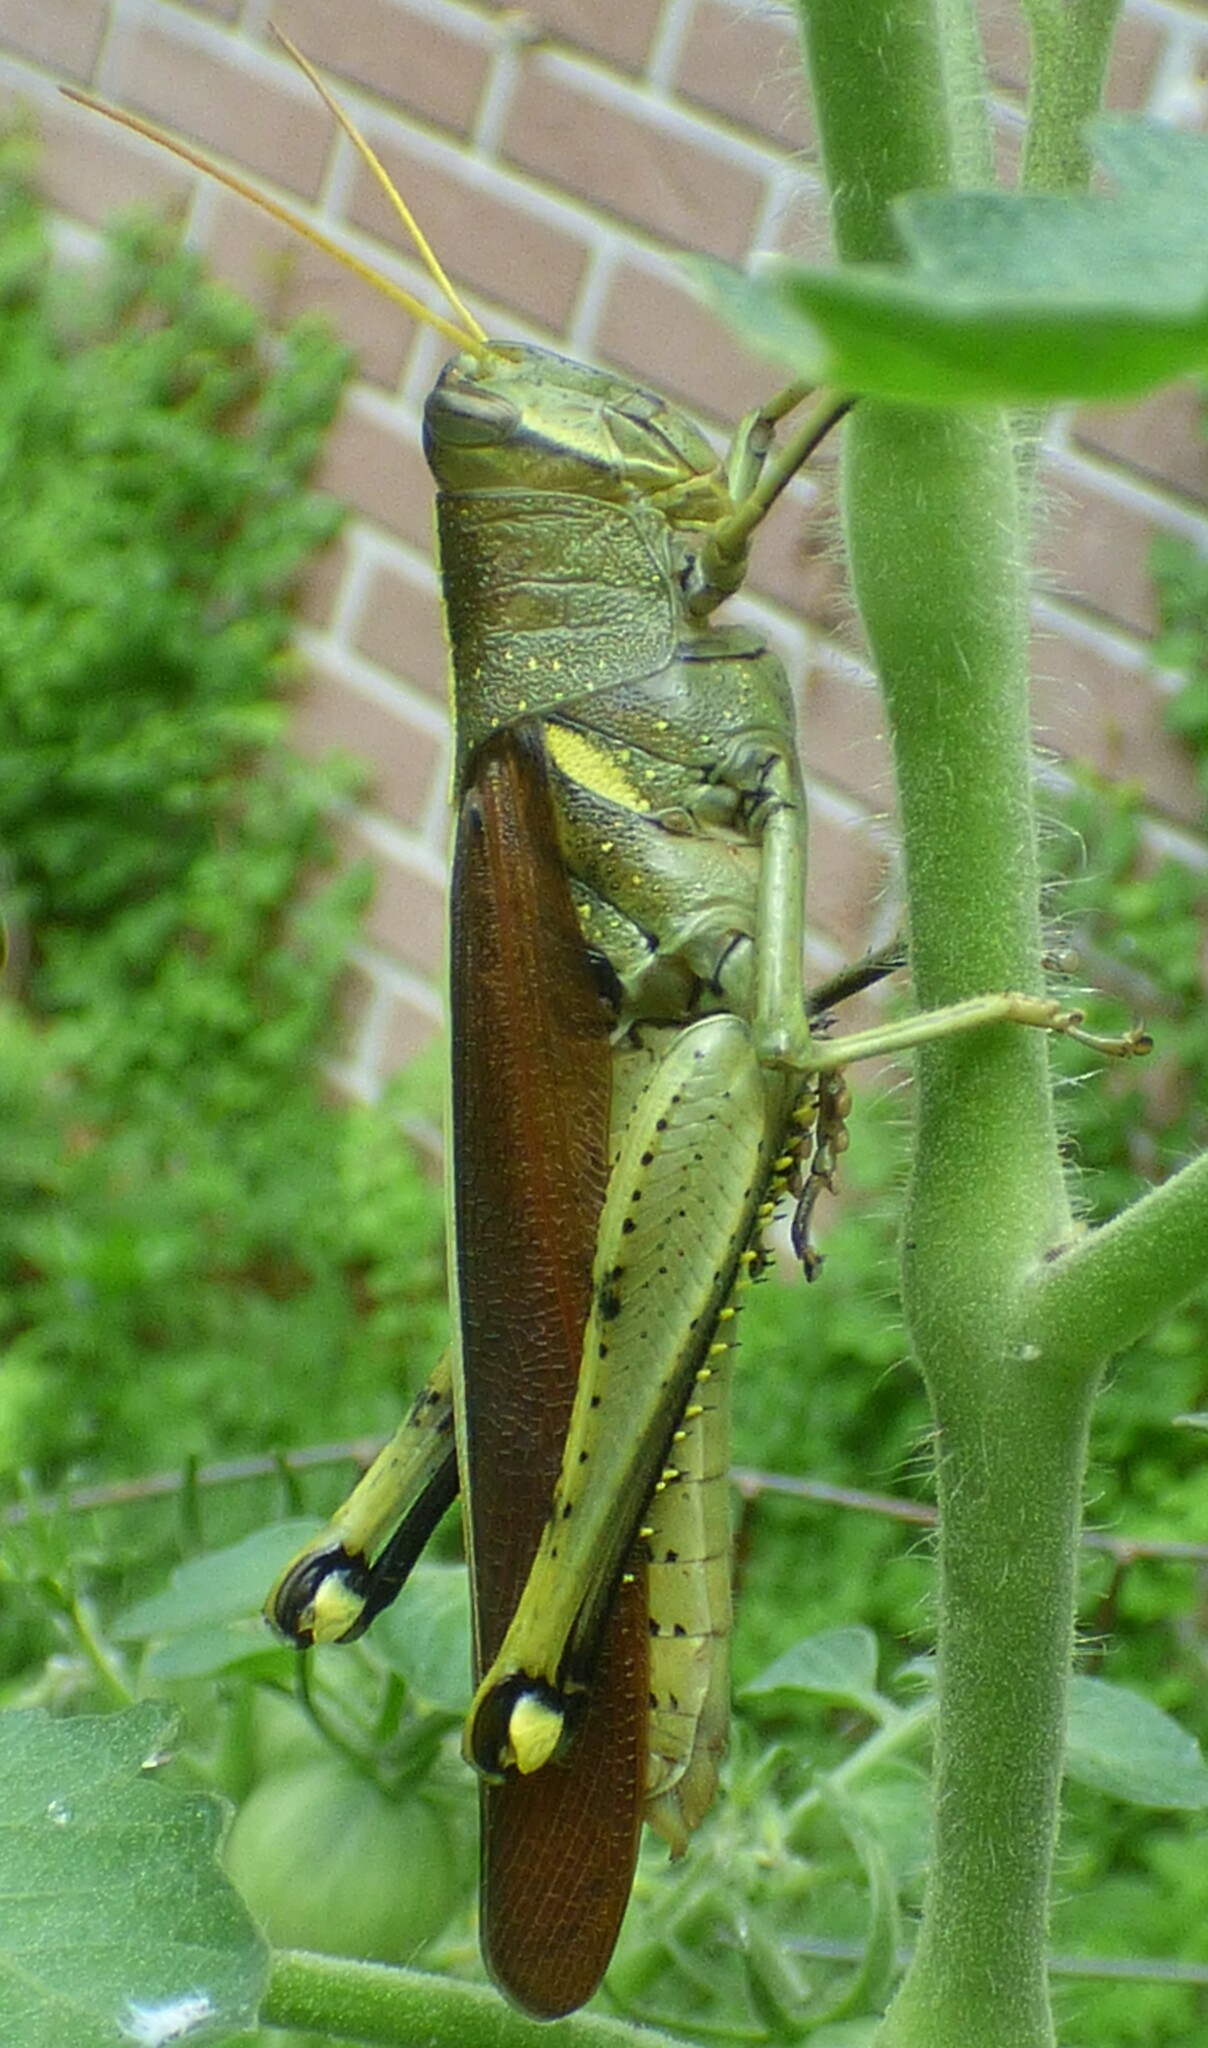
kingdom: Animalia
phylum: Arthropoda
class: Insecta
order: Orthoptera
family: Acrididae
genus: Schistocerca
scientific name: Schistocerca obscura
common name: Obscure bird grasshopper
